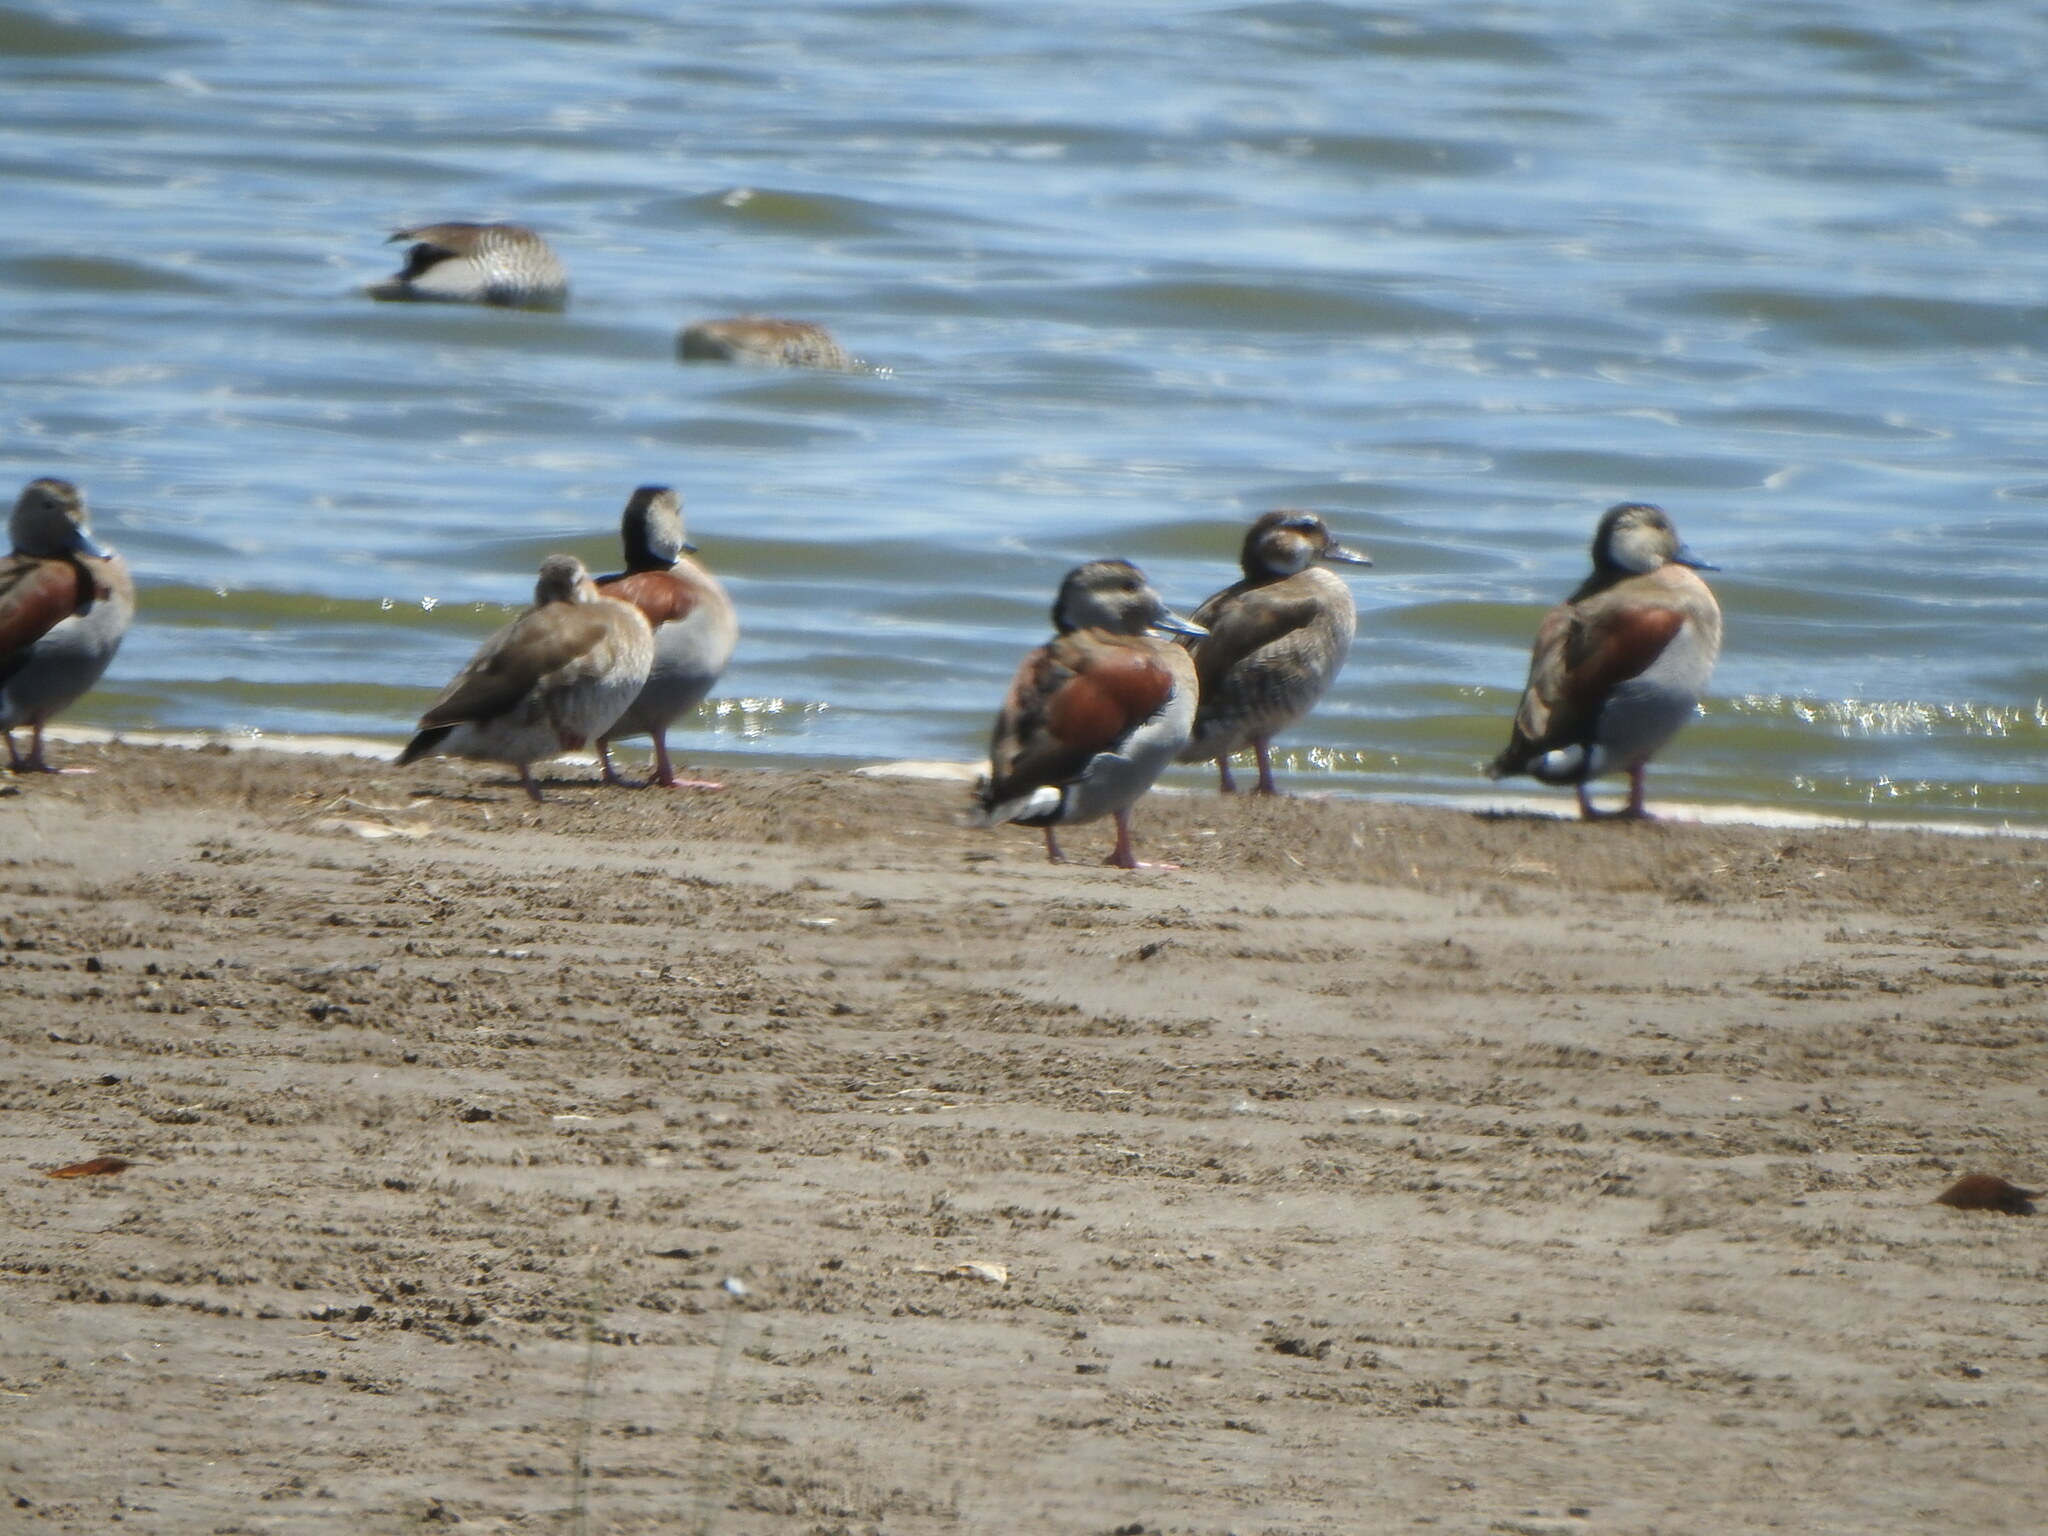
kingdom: Animalia
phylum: Chordata
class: Aves
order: Anseriformes
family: Anatidae
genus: Callonetta
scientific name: Callonetta leucophrys
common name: Ringed teal
